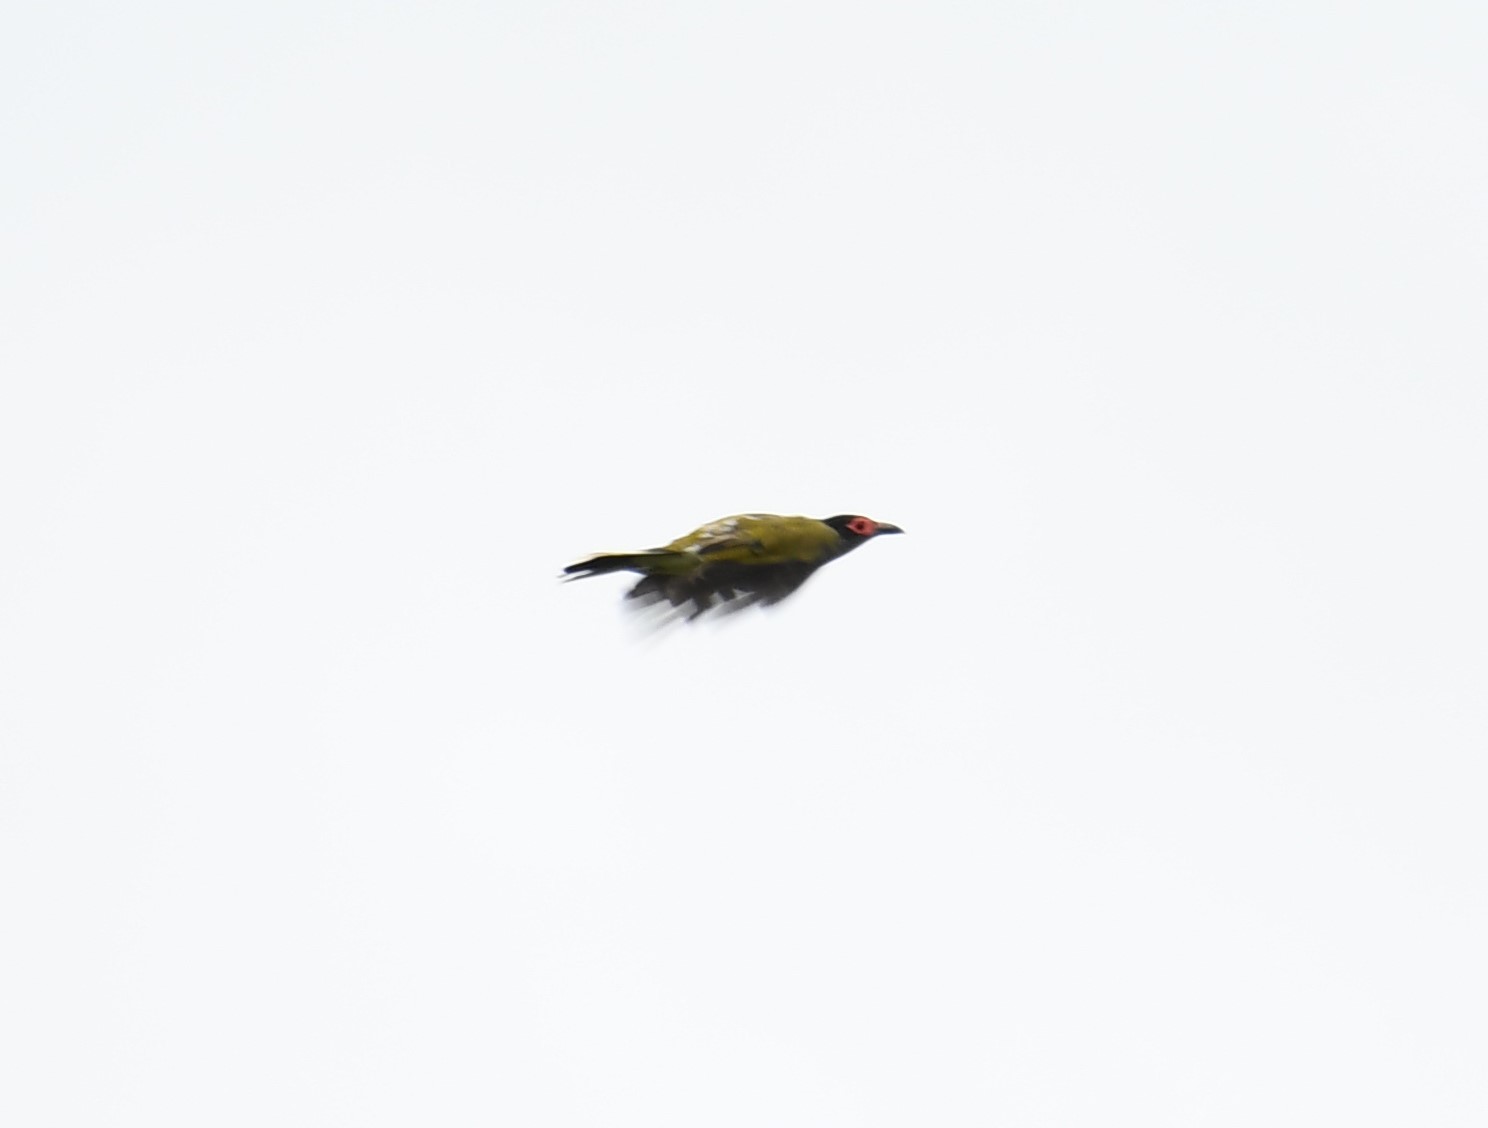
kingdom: Animalia
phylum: Chordata
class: Aves
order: Passeriformes
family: Oriolidae
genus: Sphecotheres
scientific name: Sphecotheres vieilloti
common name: Australasian figbird
